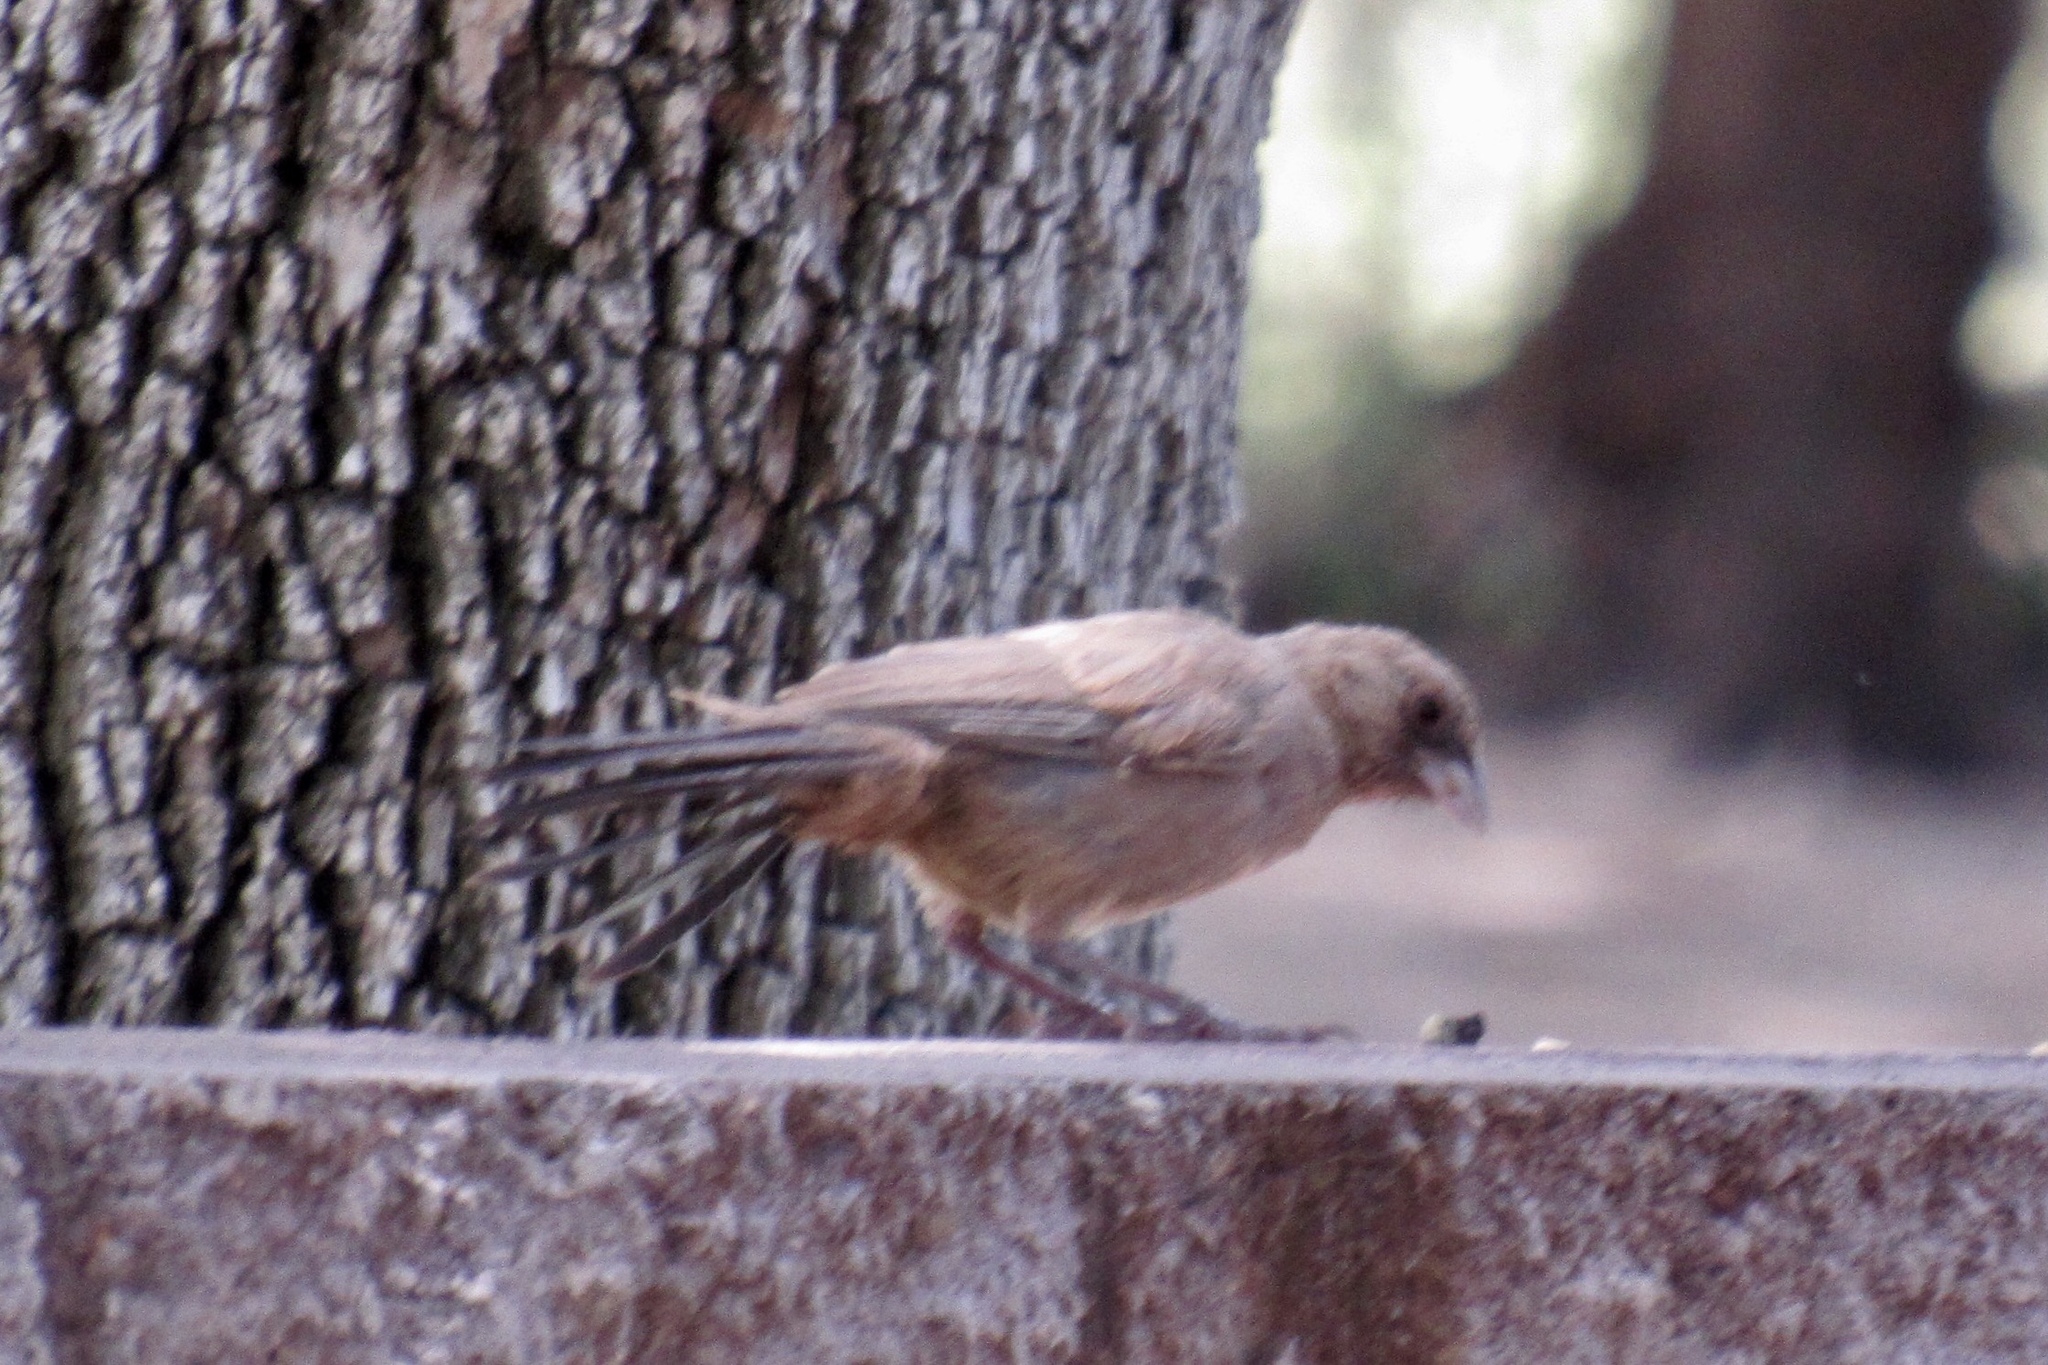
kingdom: Animalia
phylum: Chordata
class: Aves
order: Passeriformes
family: Passerellidae
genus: Melozone
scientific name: Melozone aberti
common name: Abert's towhee
